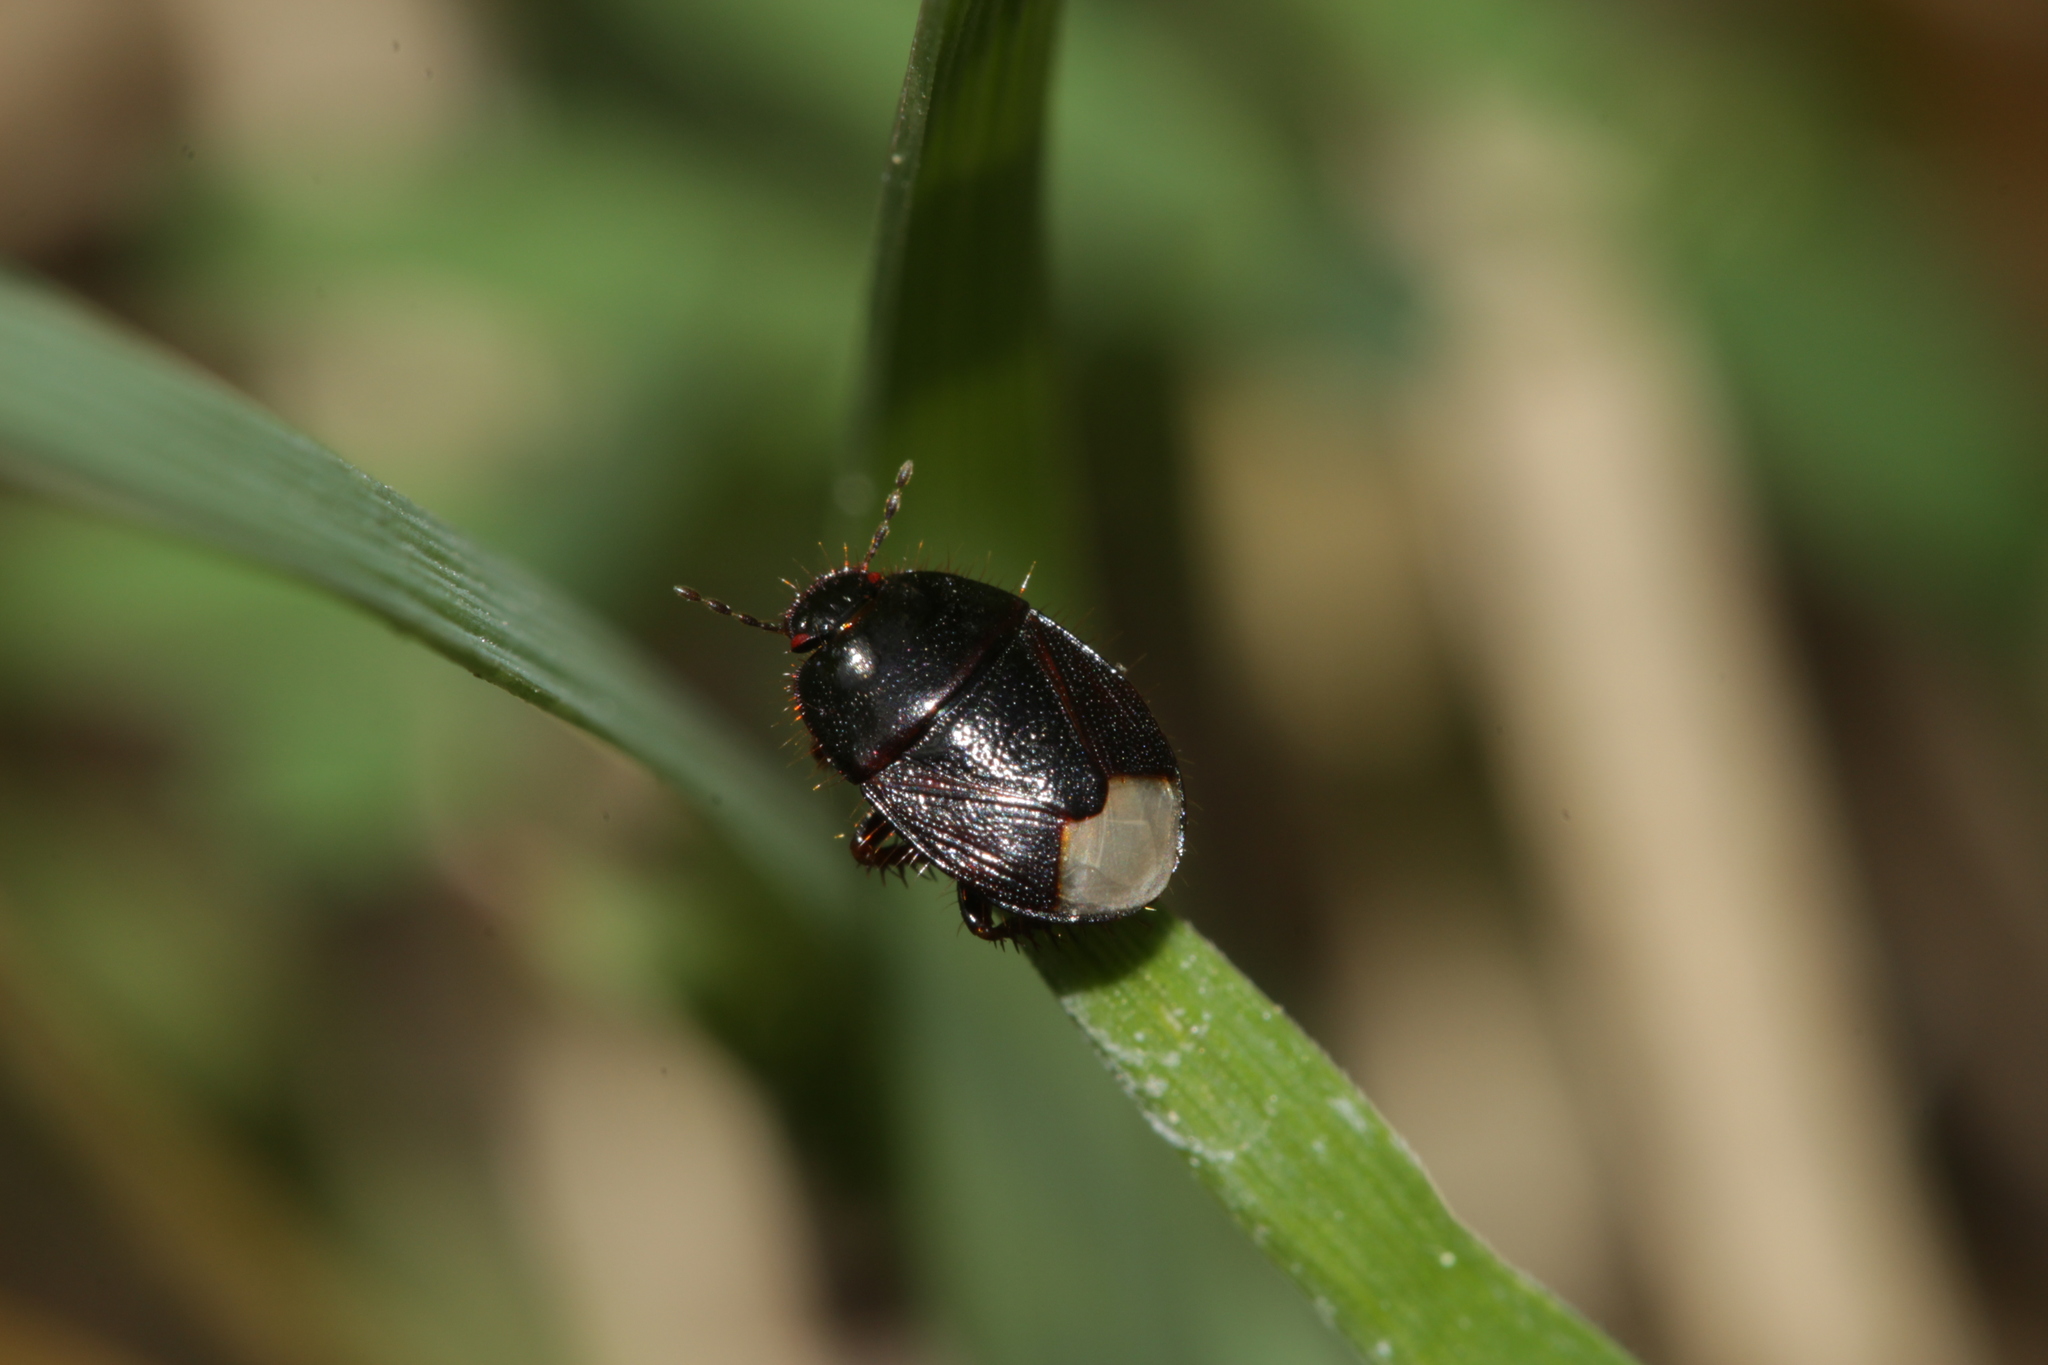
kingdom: Animalia
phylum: Arthropoda
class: Insecta
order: Hemiptera
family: Cydnidae
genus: Microporus
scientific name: Microporus nigrita
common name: Burrower bug
